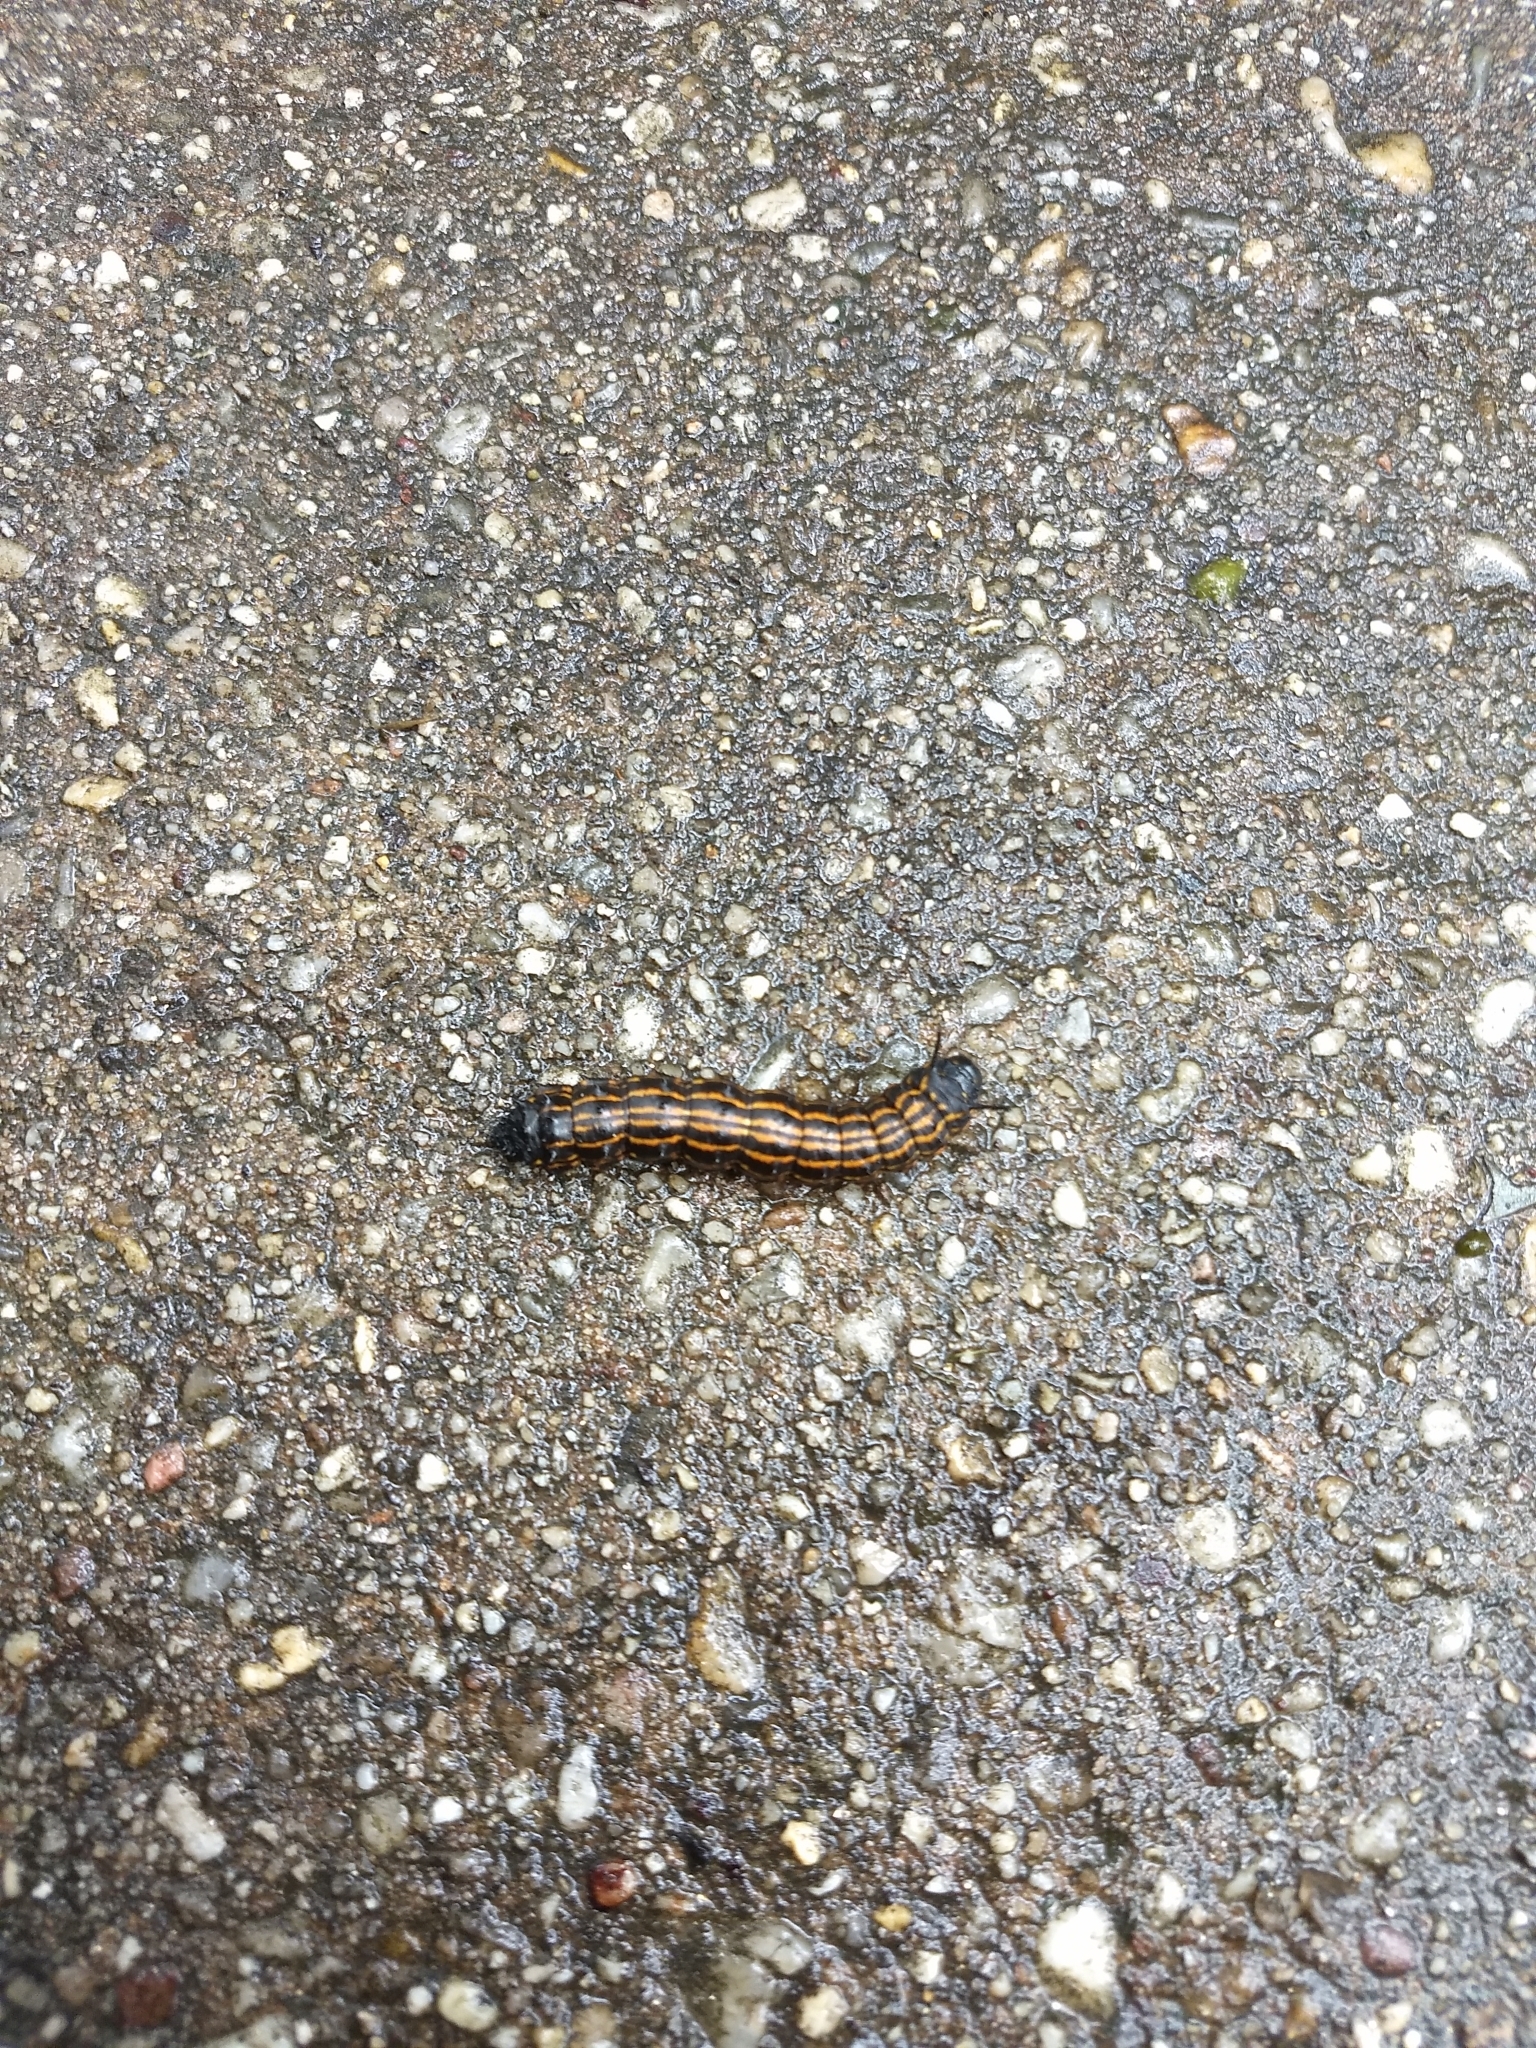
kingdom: Animalia
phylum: Arthropoda
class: Insecta
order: Lepidoptera
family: Saturniidae
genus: Anisota
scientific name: Anisota senatoria
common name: Orange-striped oakworm moth
